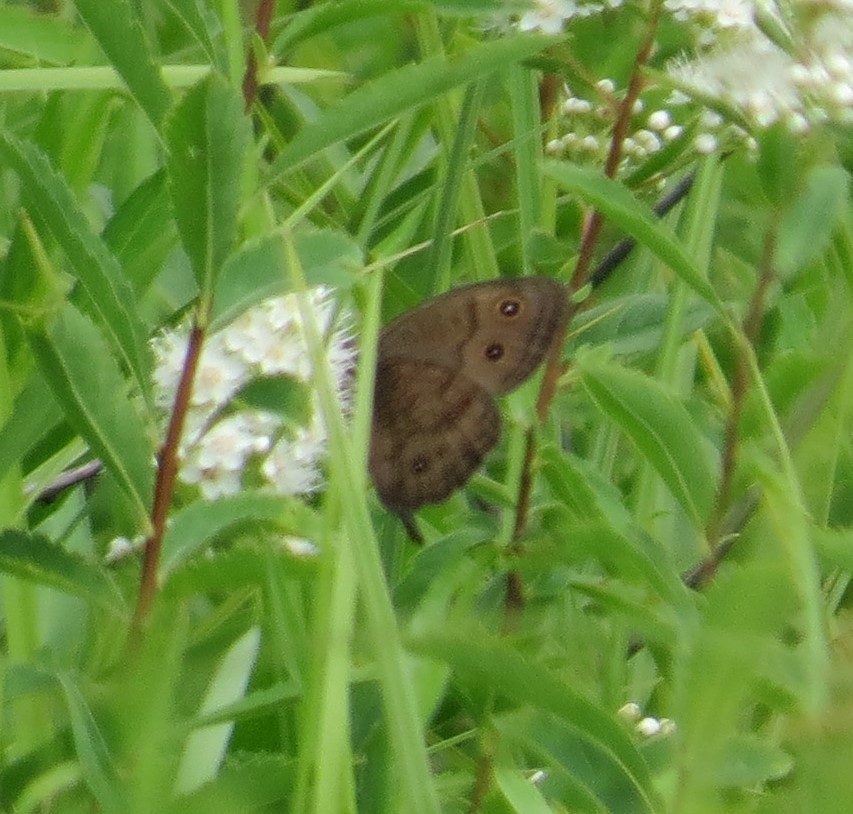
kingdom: Animalia
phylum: Arthropoda
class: Insecta
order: Lepidoptera
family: Nymphalidae
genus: Cercyonis
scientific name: Cercyonis pegala
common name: Common wood-nymph
